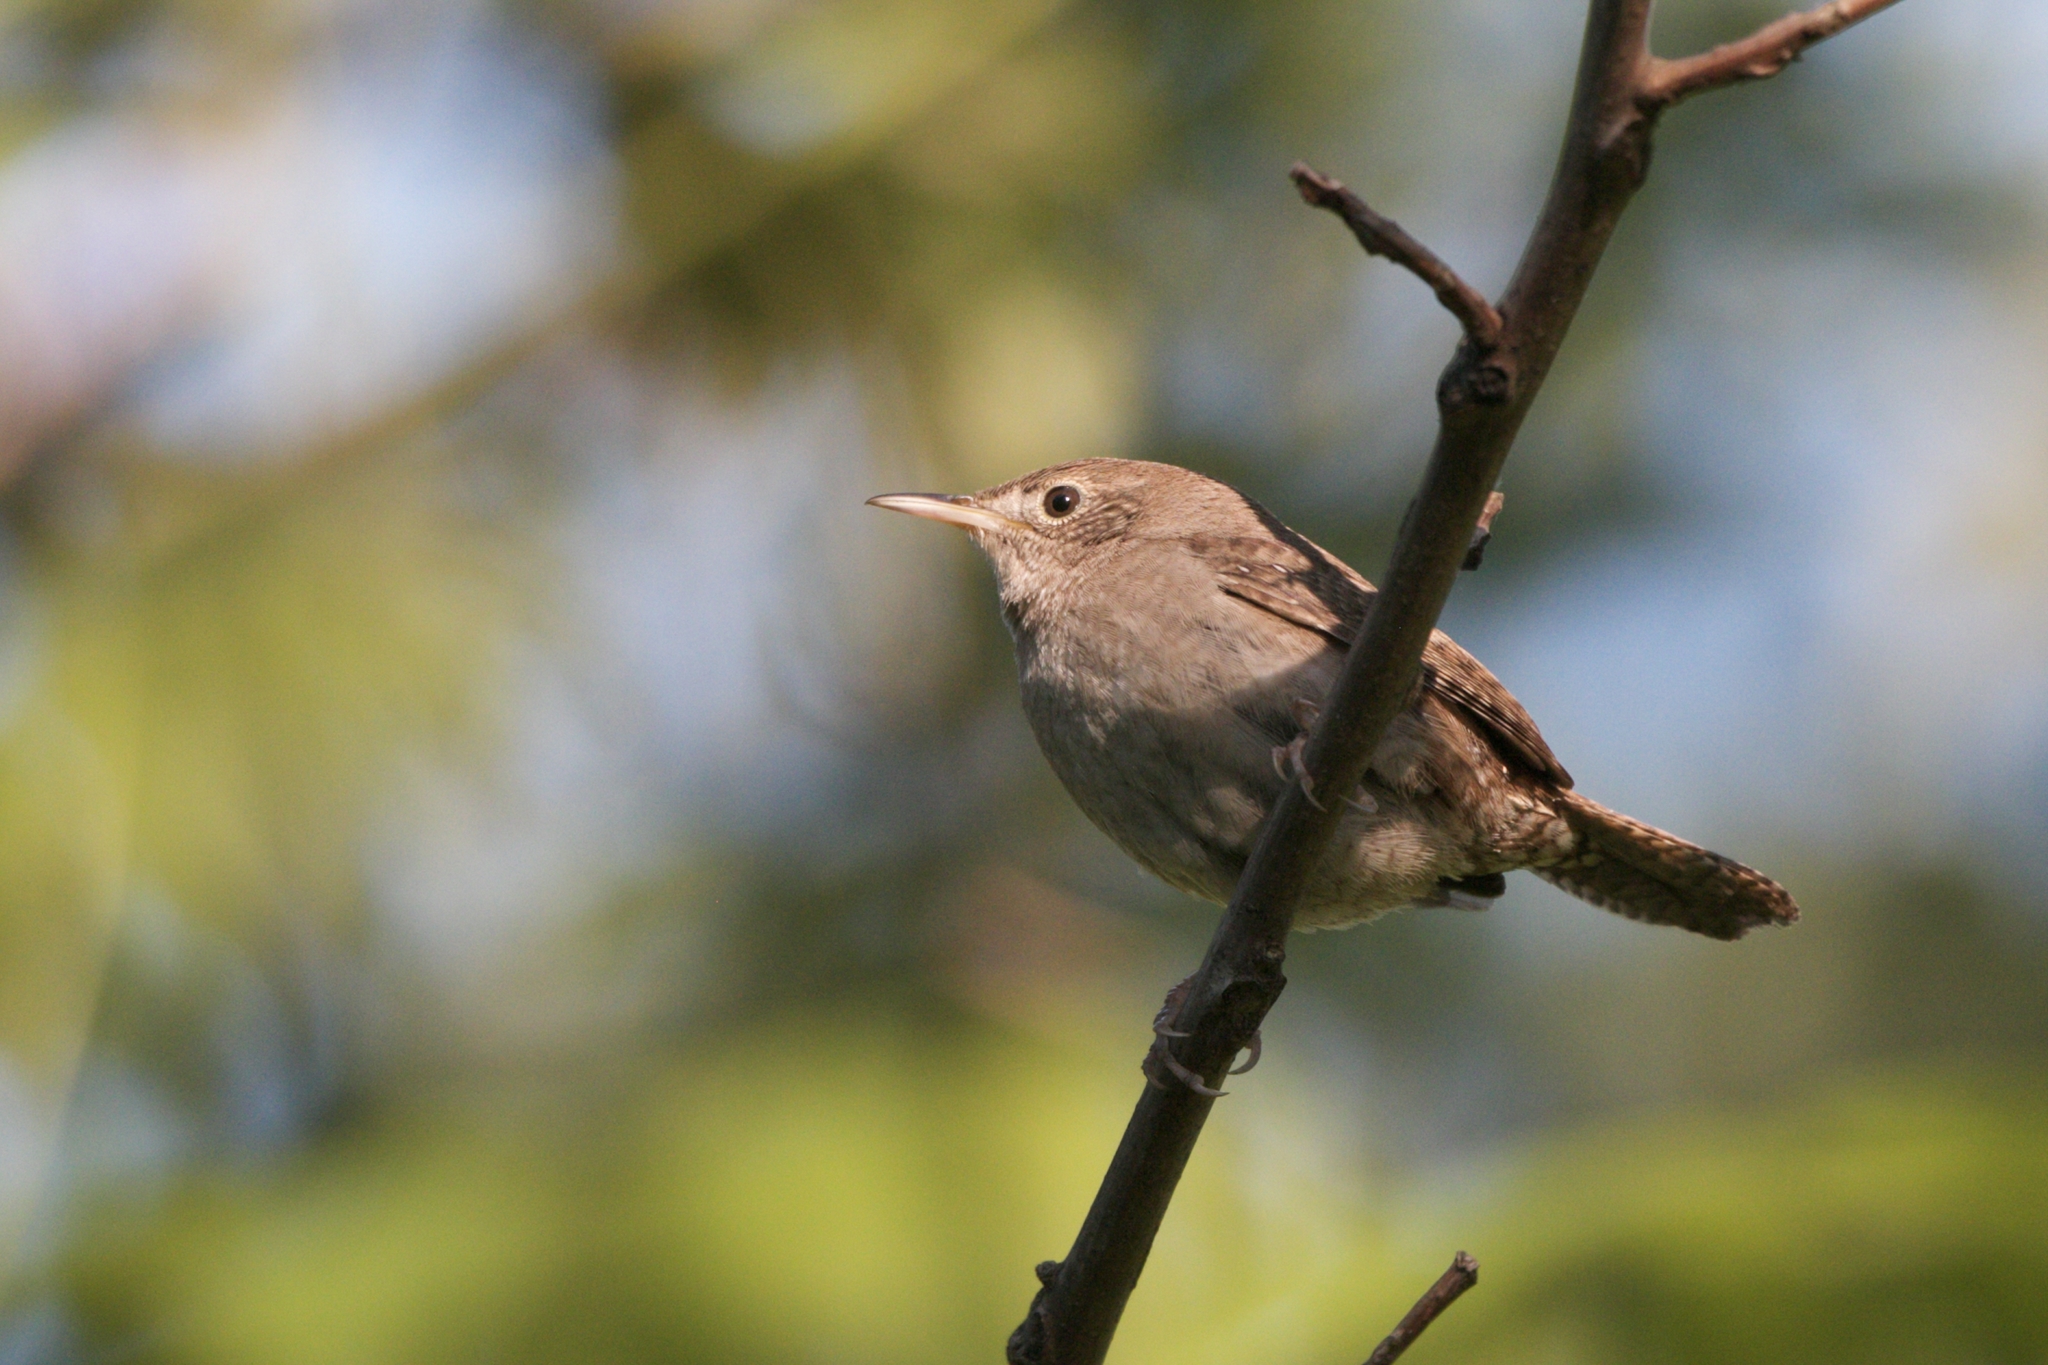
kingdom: Animalia
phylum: Chordata
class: Aves
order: Passeriformes
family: Troglodytidae
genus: Troglodytes
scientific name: Troglodytes aedon
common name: House wren
